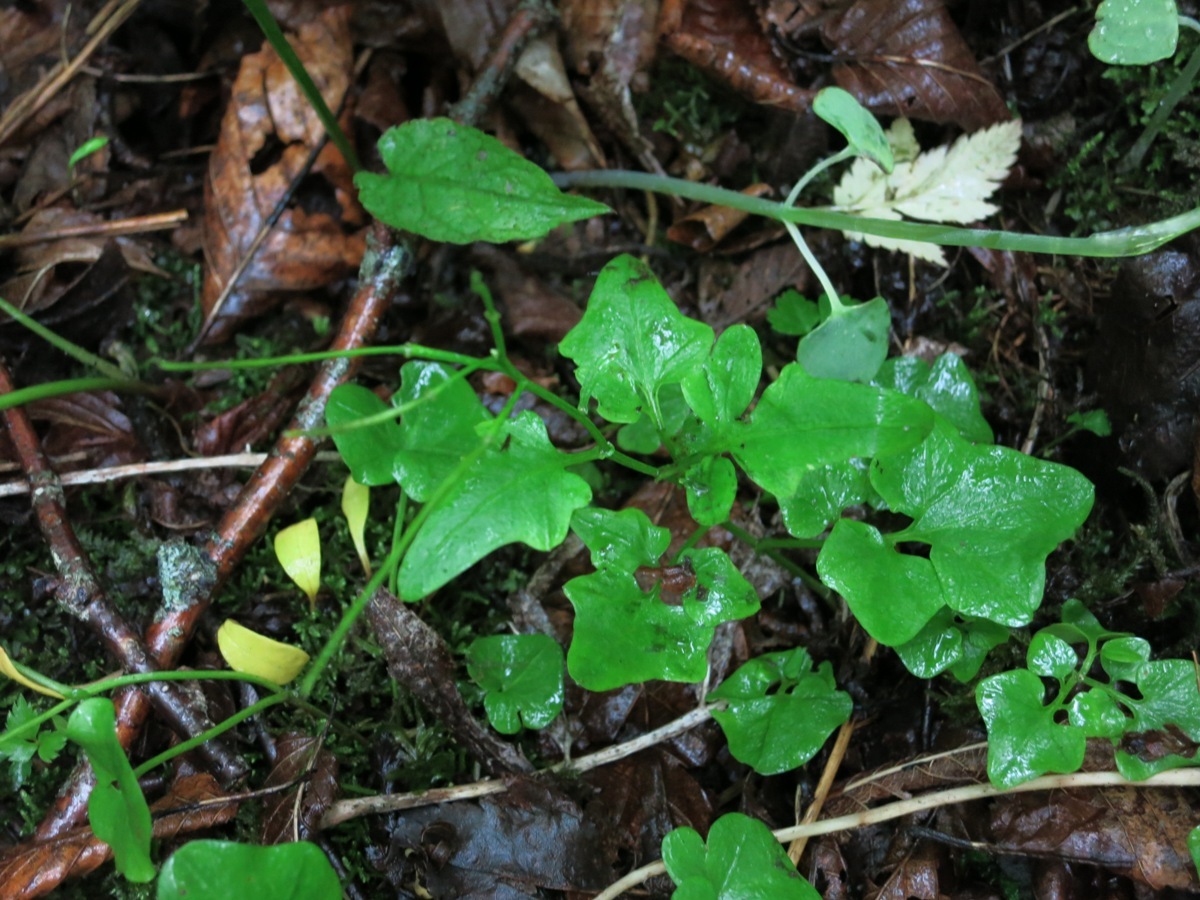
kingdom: Plantae
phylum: Tracheophyta
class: Magnoliopsida
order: Brassicales
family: Brassicaceae
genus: Cardamine
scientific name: Cardamine clematitis
